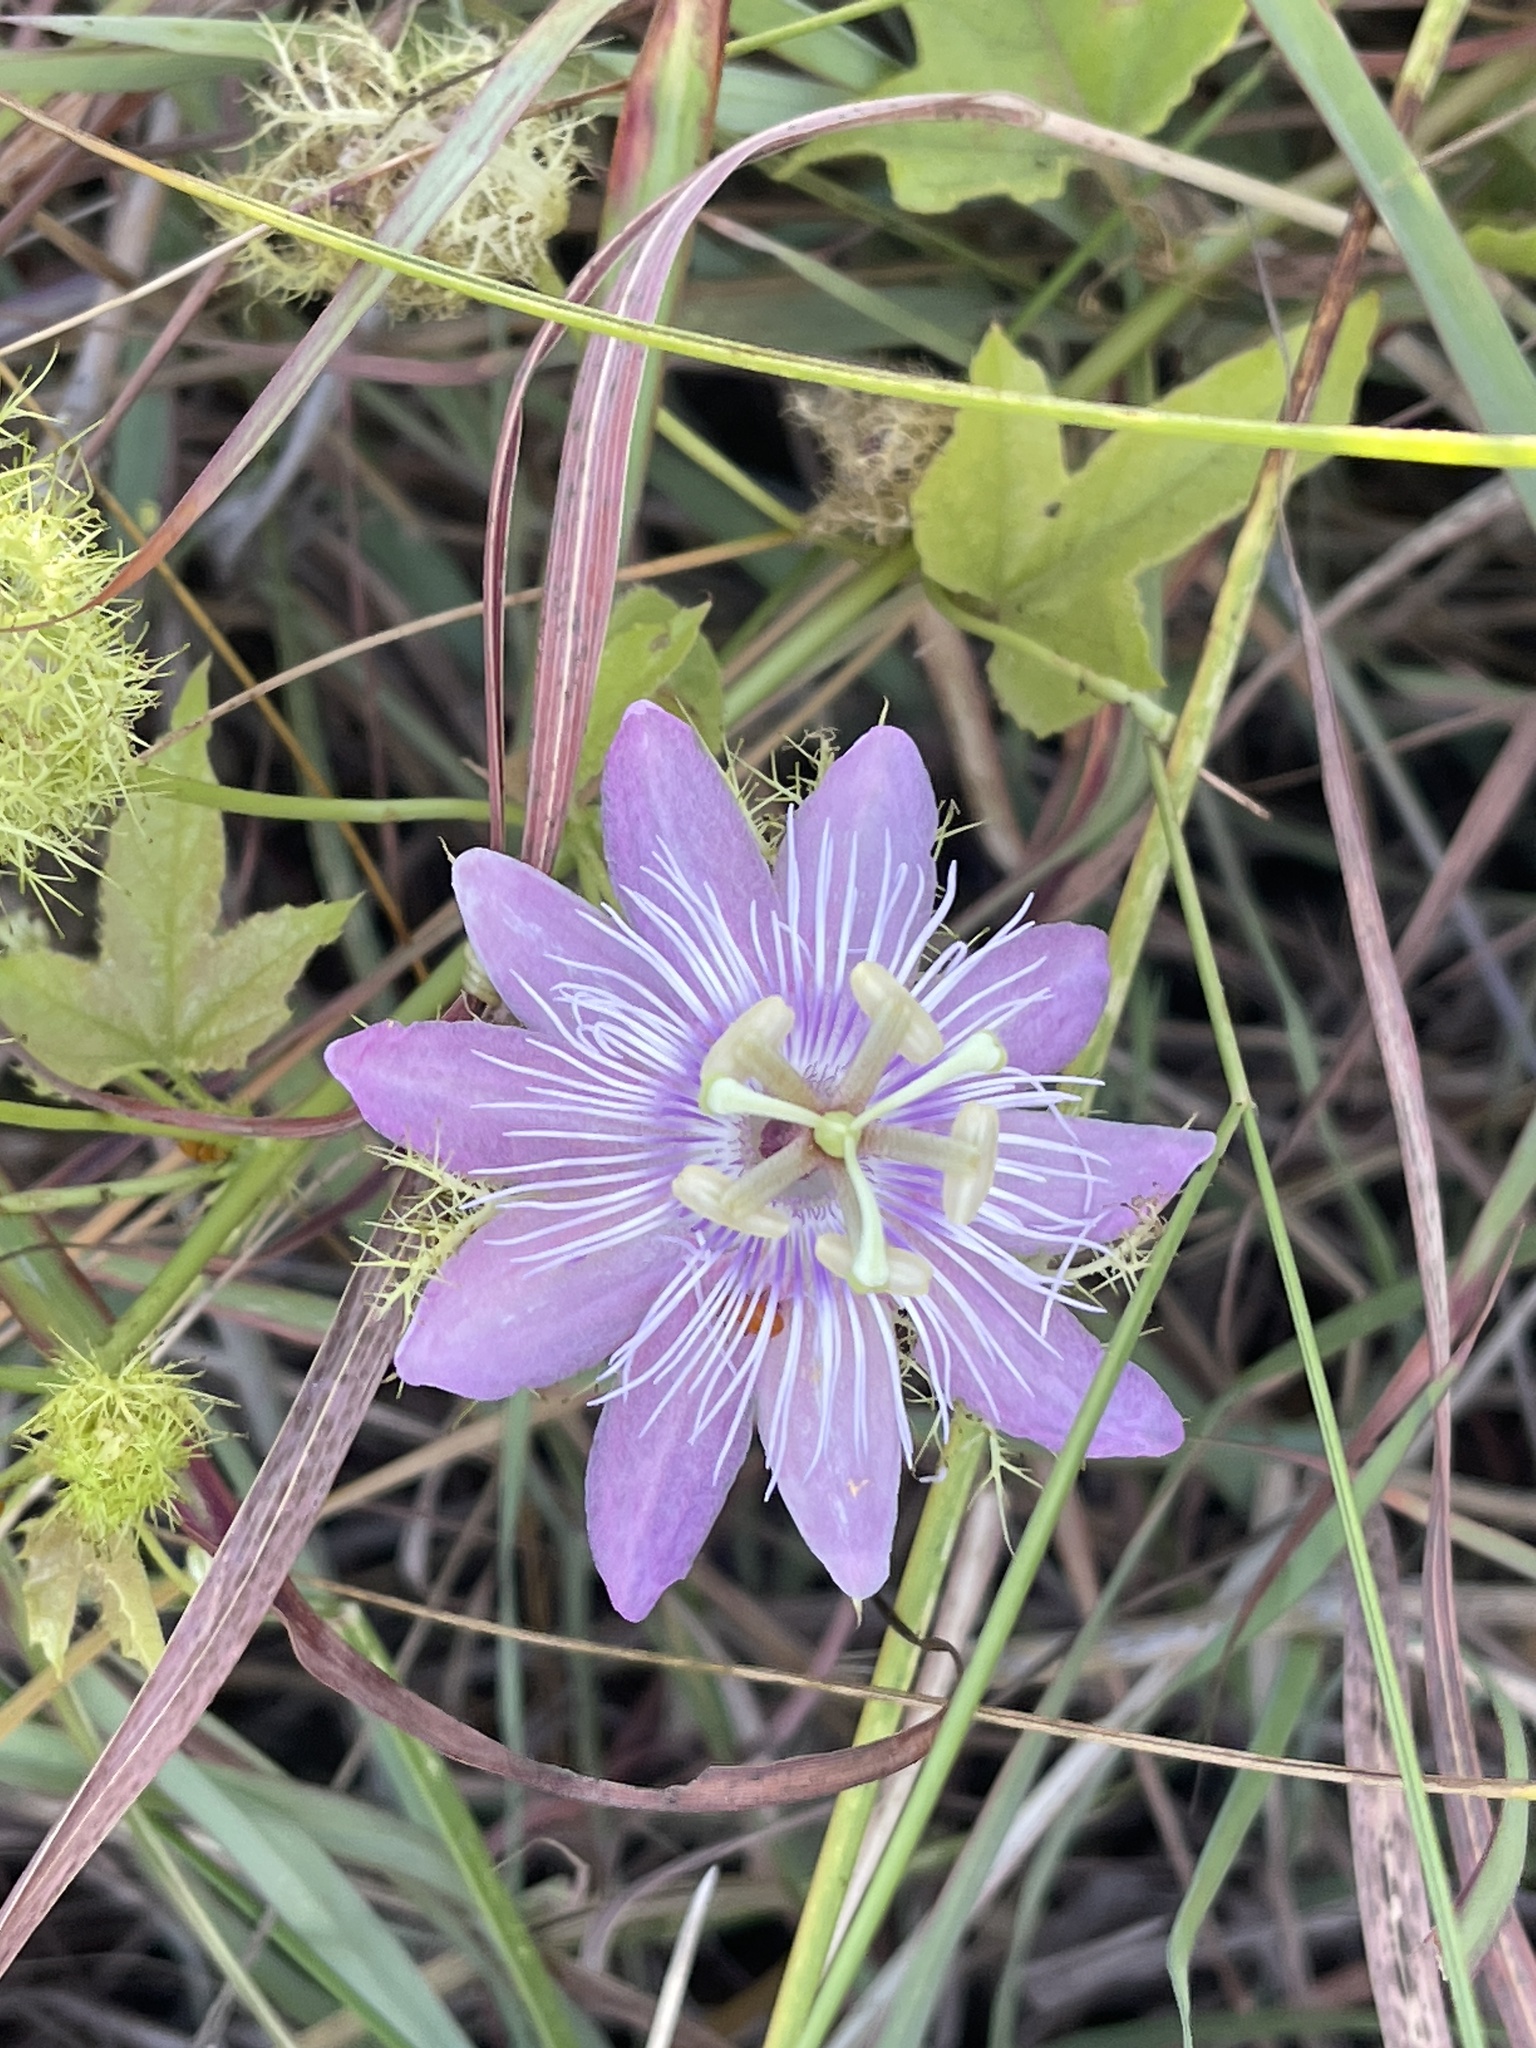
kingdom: Plantae
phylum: Tracheophyta
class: Magnoliopsida
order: Malpighiales
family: Passifloraceae
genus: Passiflora
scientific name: Passiflora
